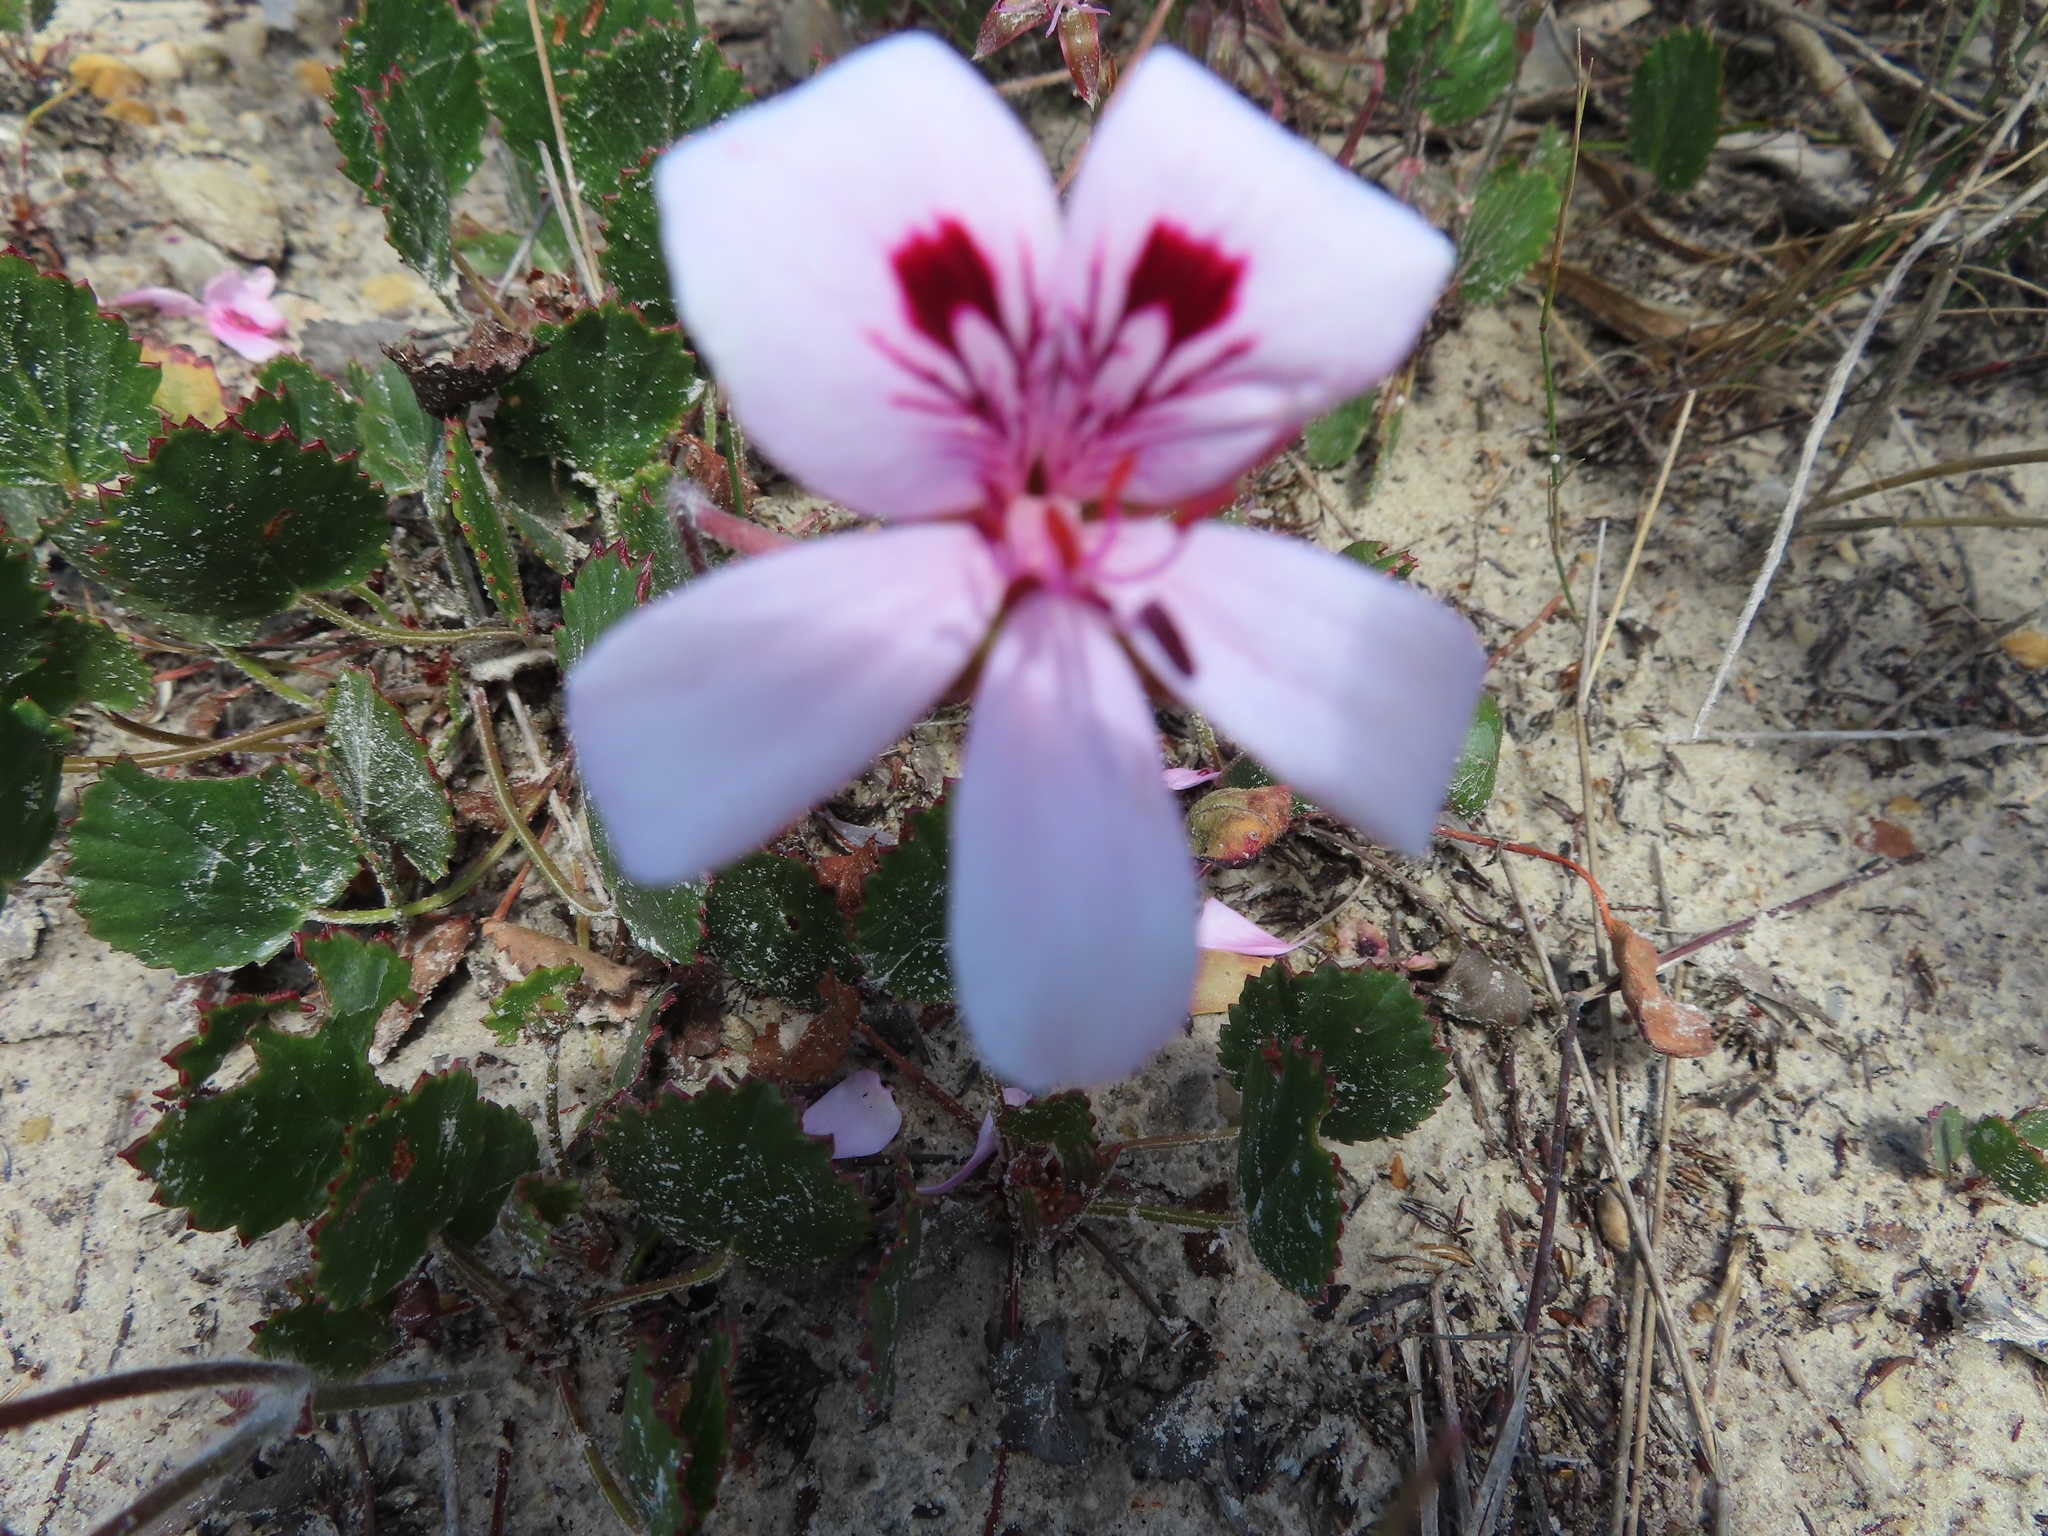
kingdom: Plantae
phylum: Tracheophyta
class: Magnoliopsida
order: Geraniales
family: Geraniaceae
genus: Pelargonium
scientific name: Pelargonium elegans
